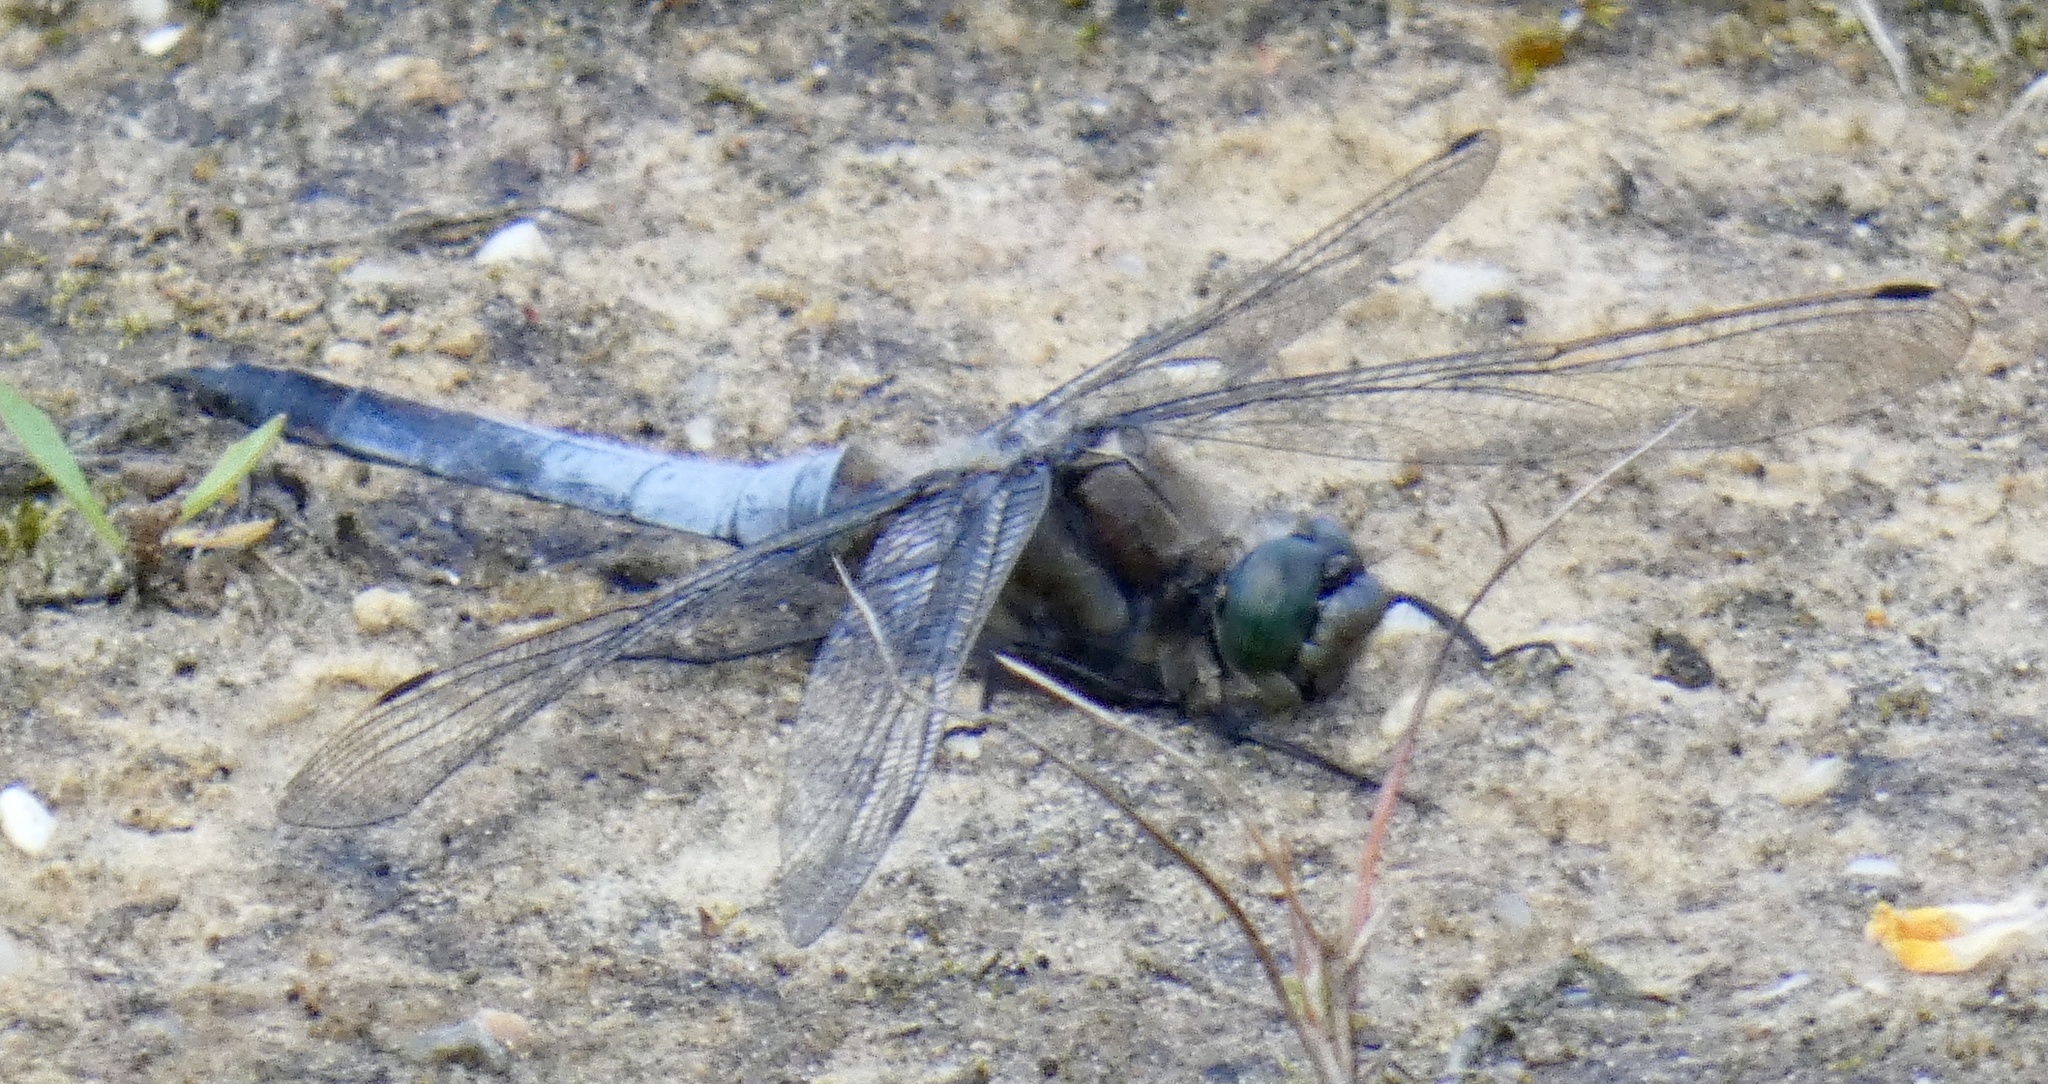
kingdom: Animalia
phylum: Arthropoda
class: Insecta
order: Odonata
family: Libellulidae
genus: Orthetrum
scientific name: Orthetrum cancellatum
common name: Black-tailed skimmer
